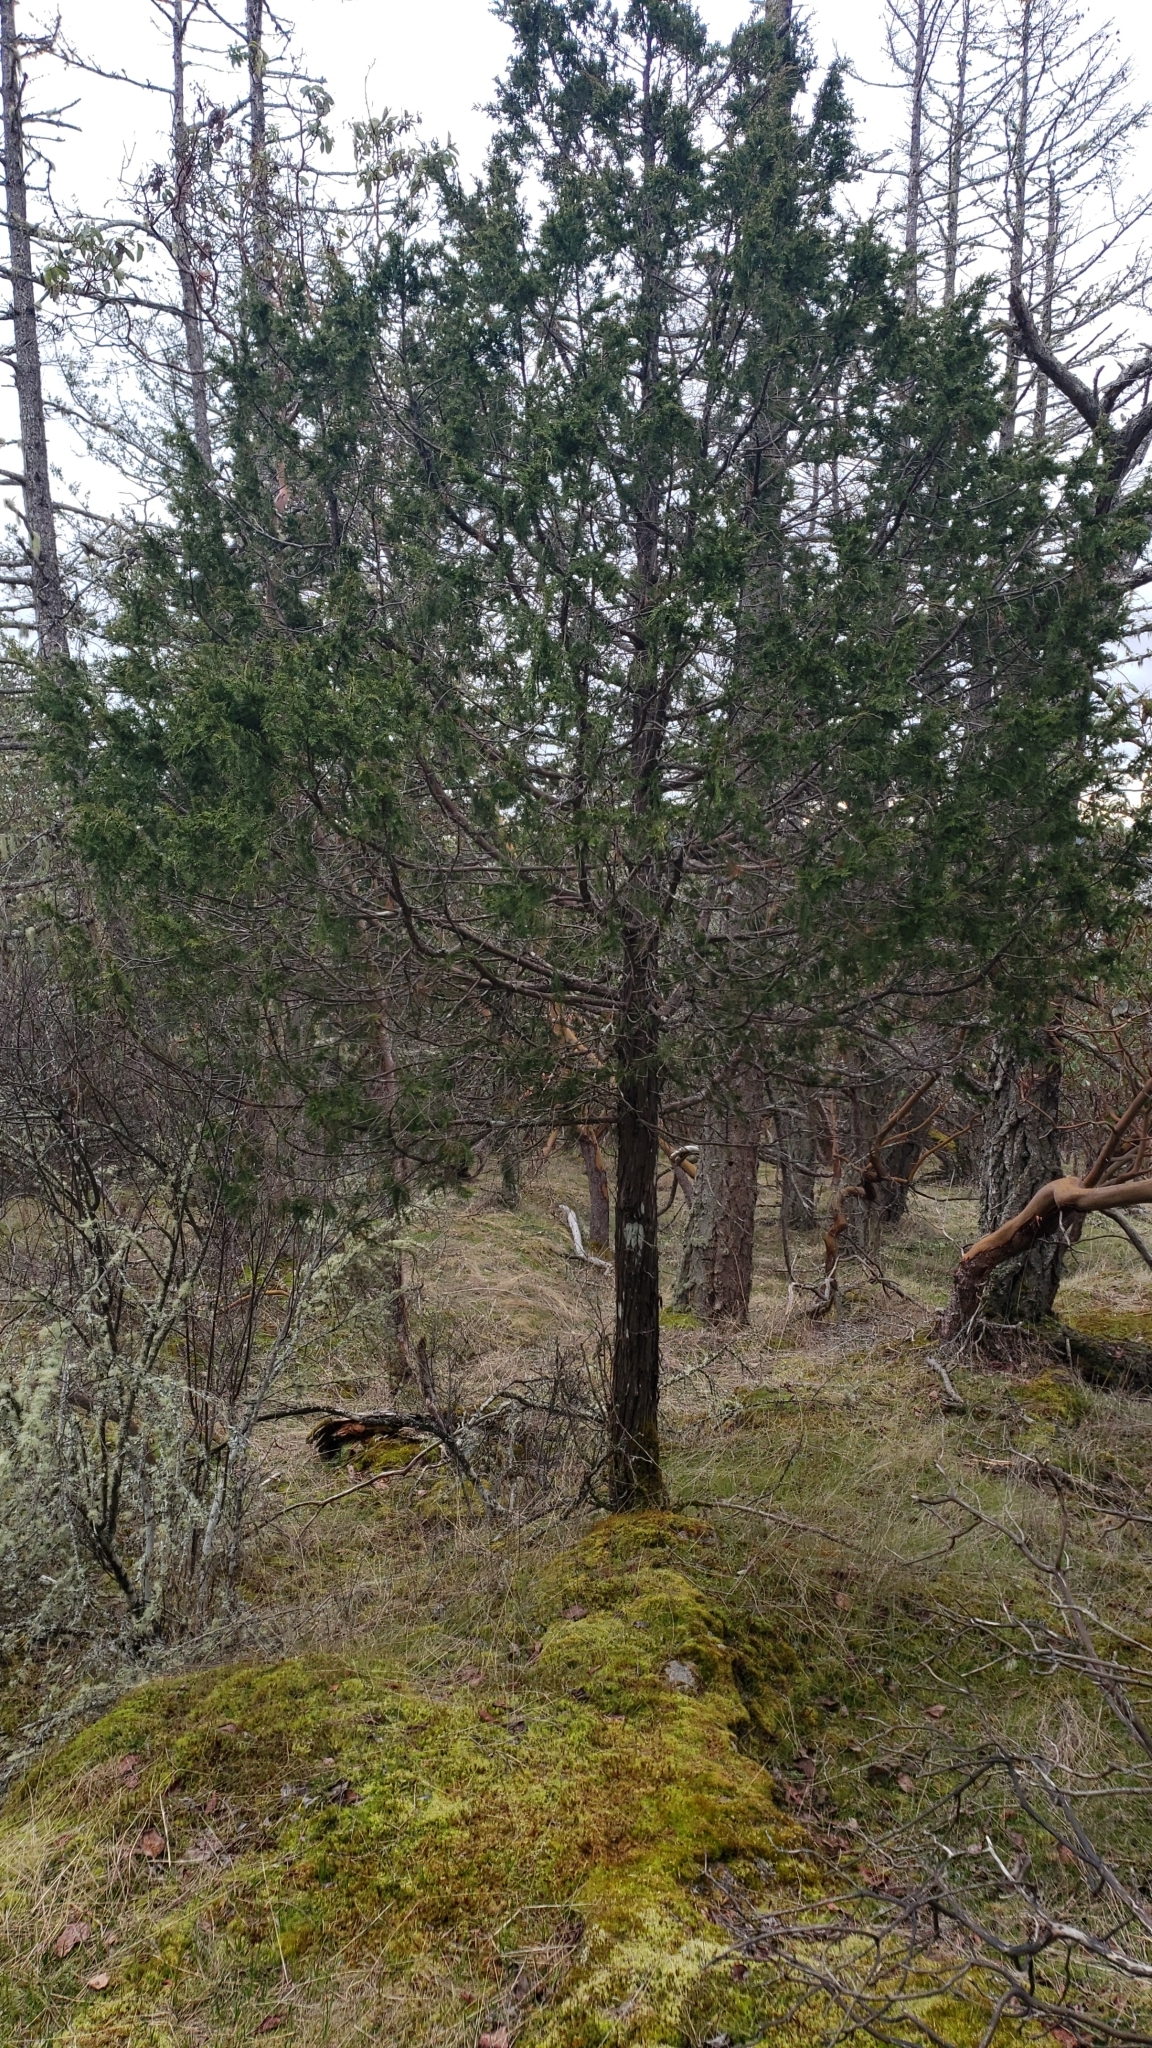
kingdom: Plantae
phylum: Tracheophyta
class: Pinopsida
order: Pinales
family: Cupressaceae
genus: Juniperus
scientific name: Juniperus scopulorum
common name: Rocky mountain juniper
